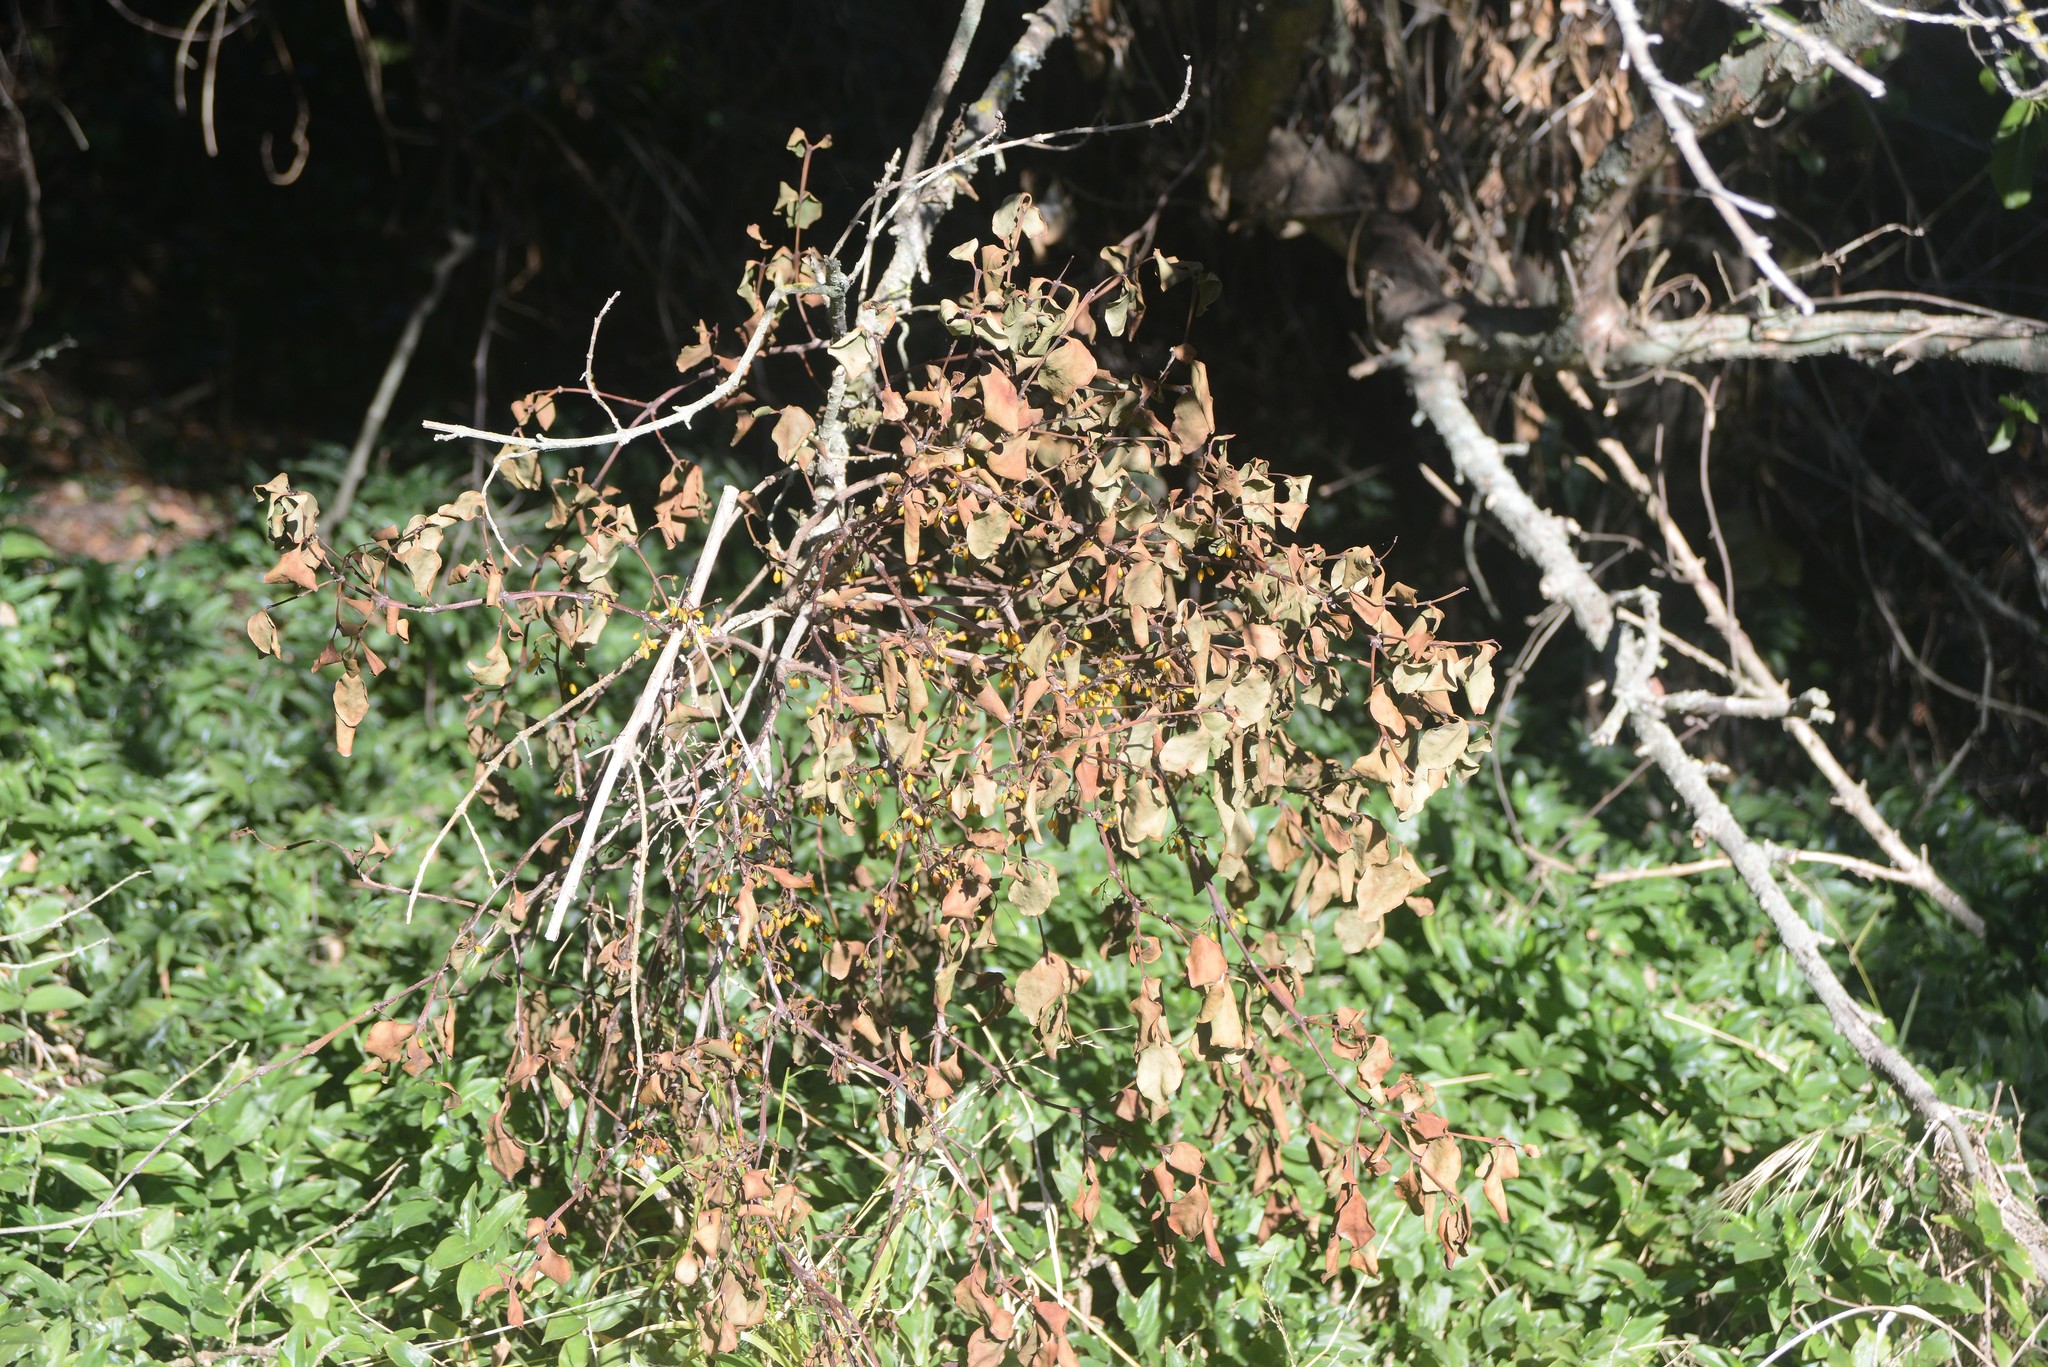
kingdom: Plantae
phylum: Tracheophyta
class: Magnoliopsida
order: Santalales
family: Loranthaceae
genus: Ileostylus
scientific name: Ileostylus micranthus
